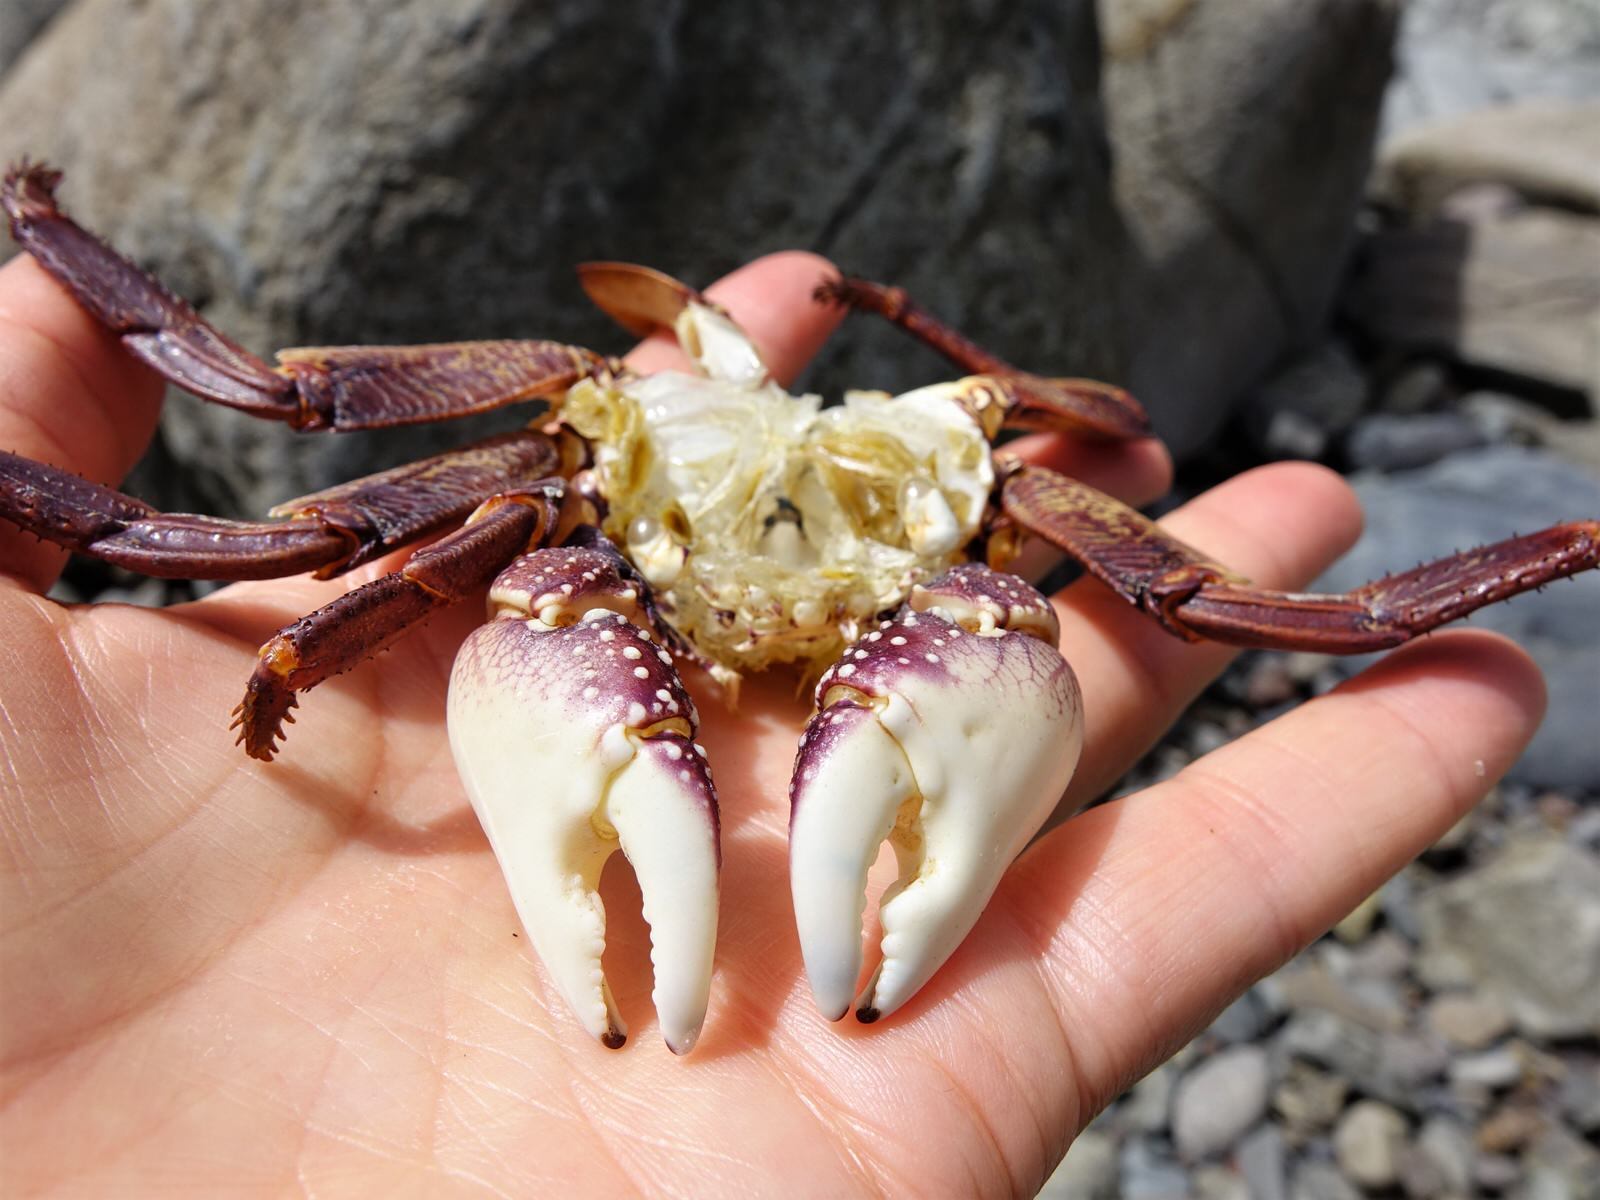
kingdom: Animalia
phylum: Arthropoda
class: Malacostraca
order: Decapoda
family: Grapsidae
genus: Leptograpsus
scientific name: Leptograpsus variegatus
